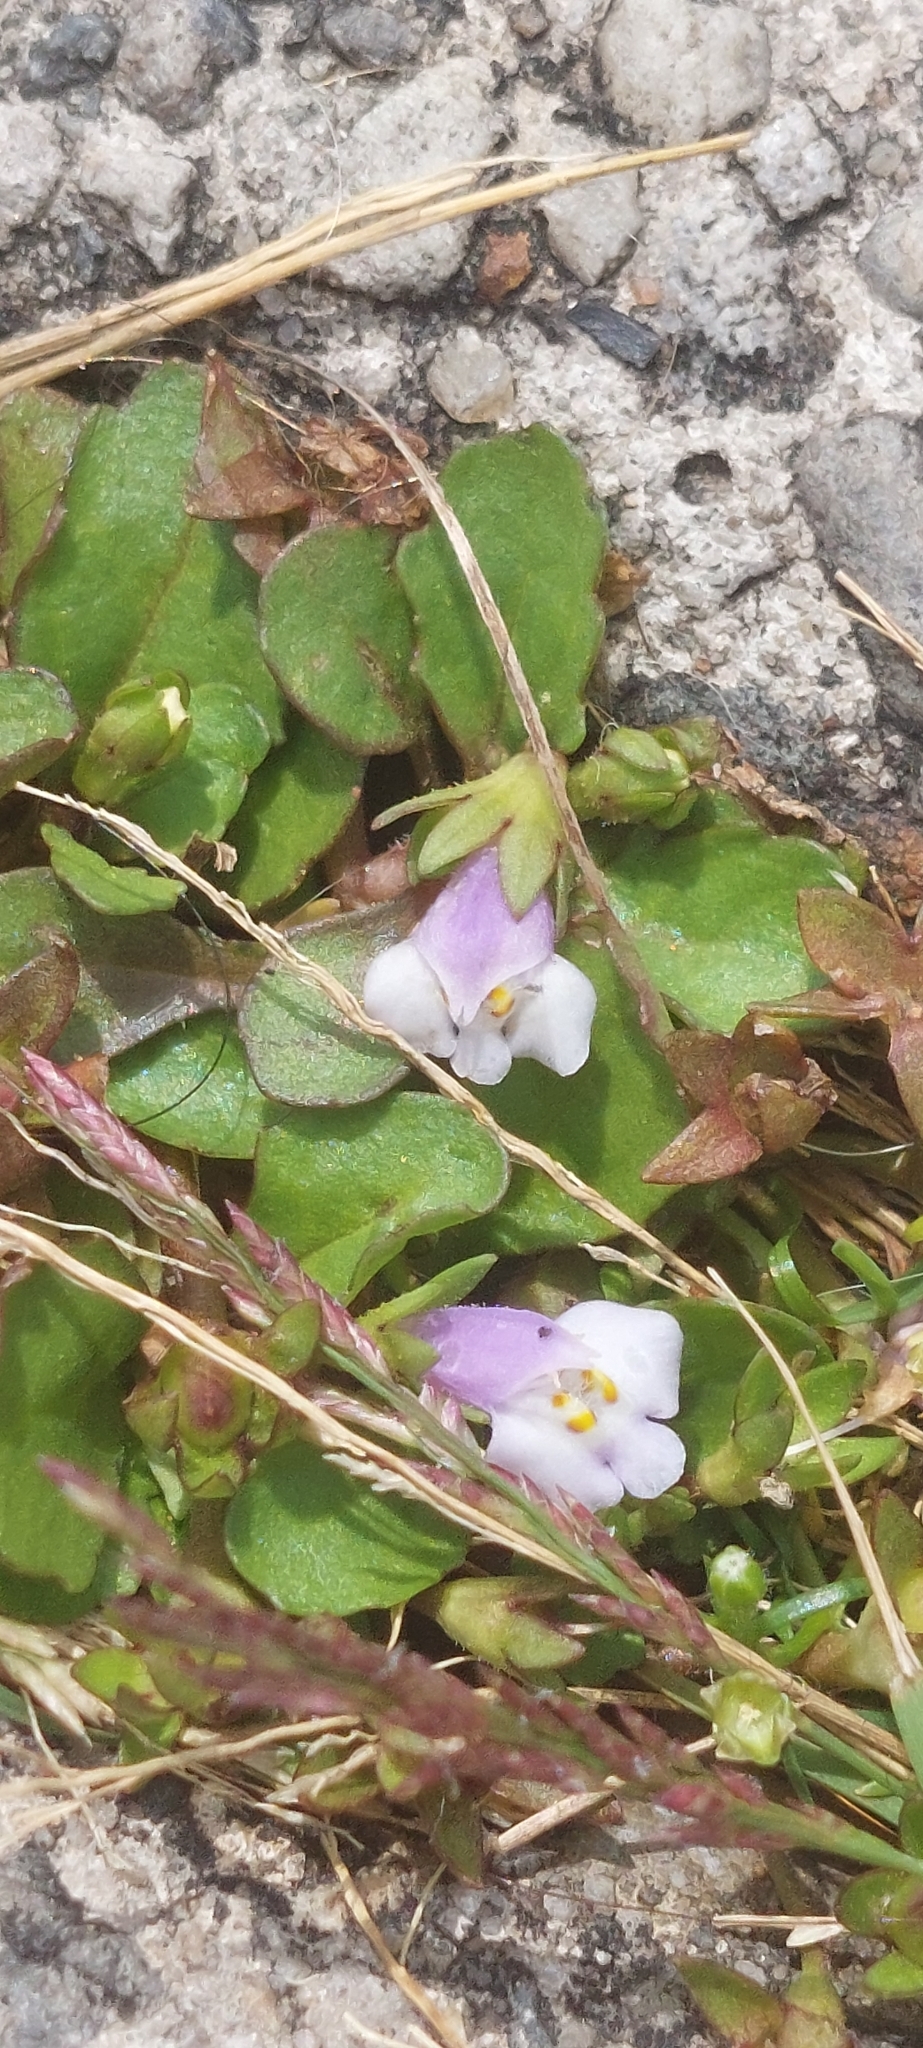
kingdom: Plantae
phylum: Tracheophyta
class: Magnoliopsida
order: Lamiales
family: Mazaceae
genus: Mazus
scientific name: Mazus pumilus
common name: Japanese mazus
